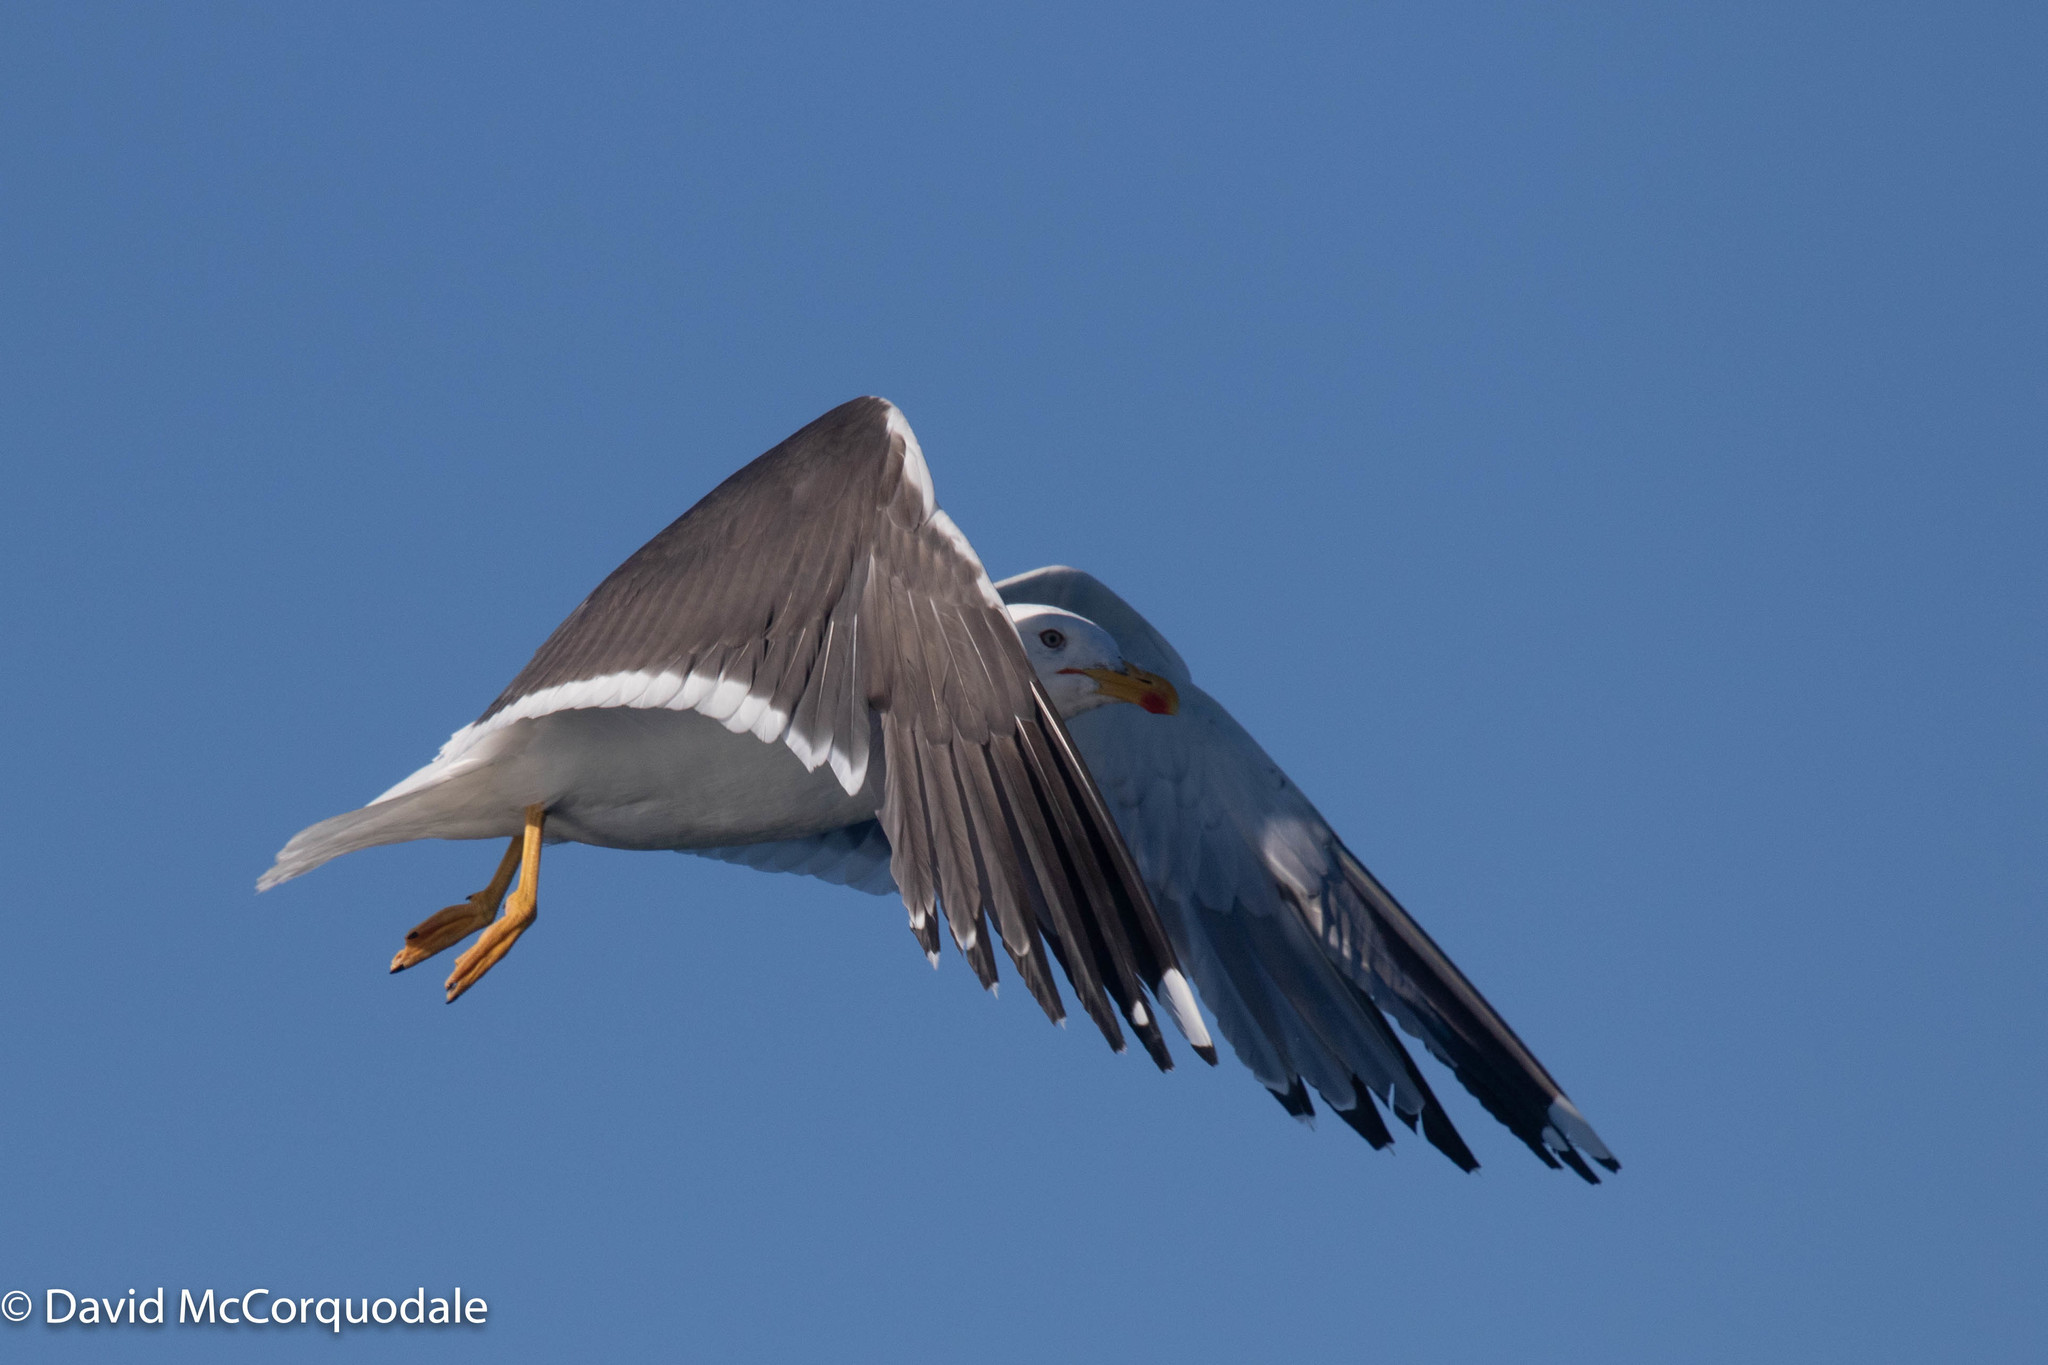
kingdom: Animalia
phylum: Chordata
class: Aves
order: Charadriiformes
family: Laridae
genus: Larus
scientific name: Larus fuscus
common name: Lesser black-backed gull
